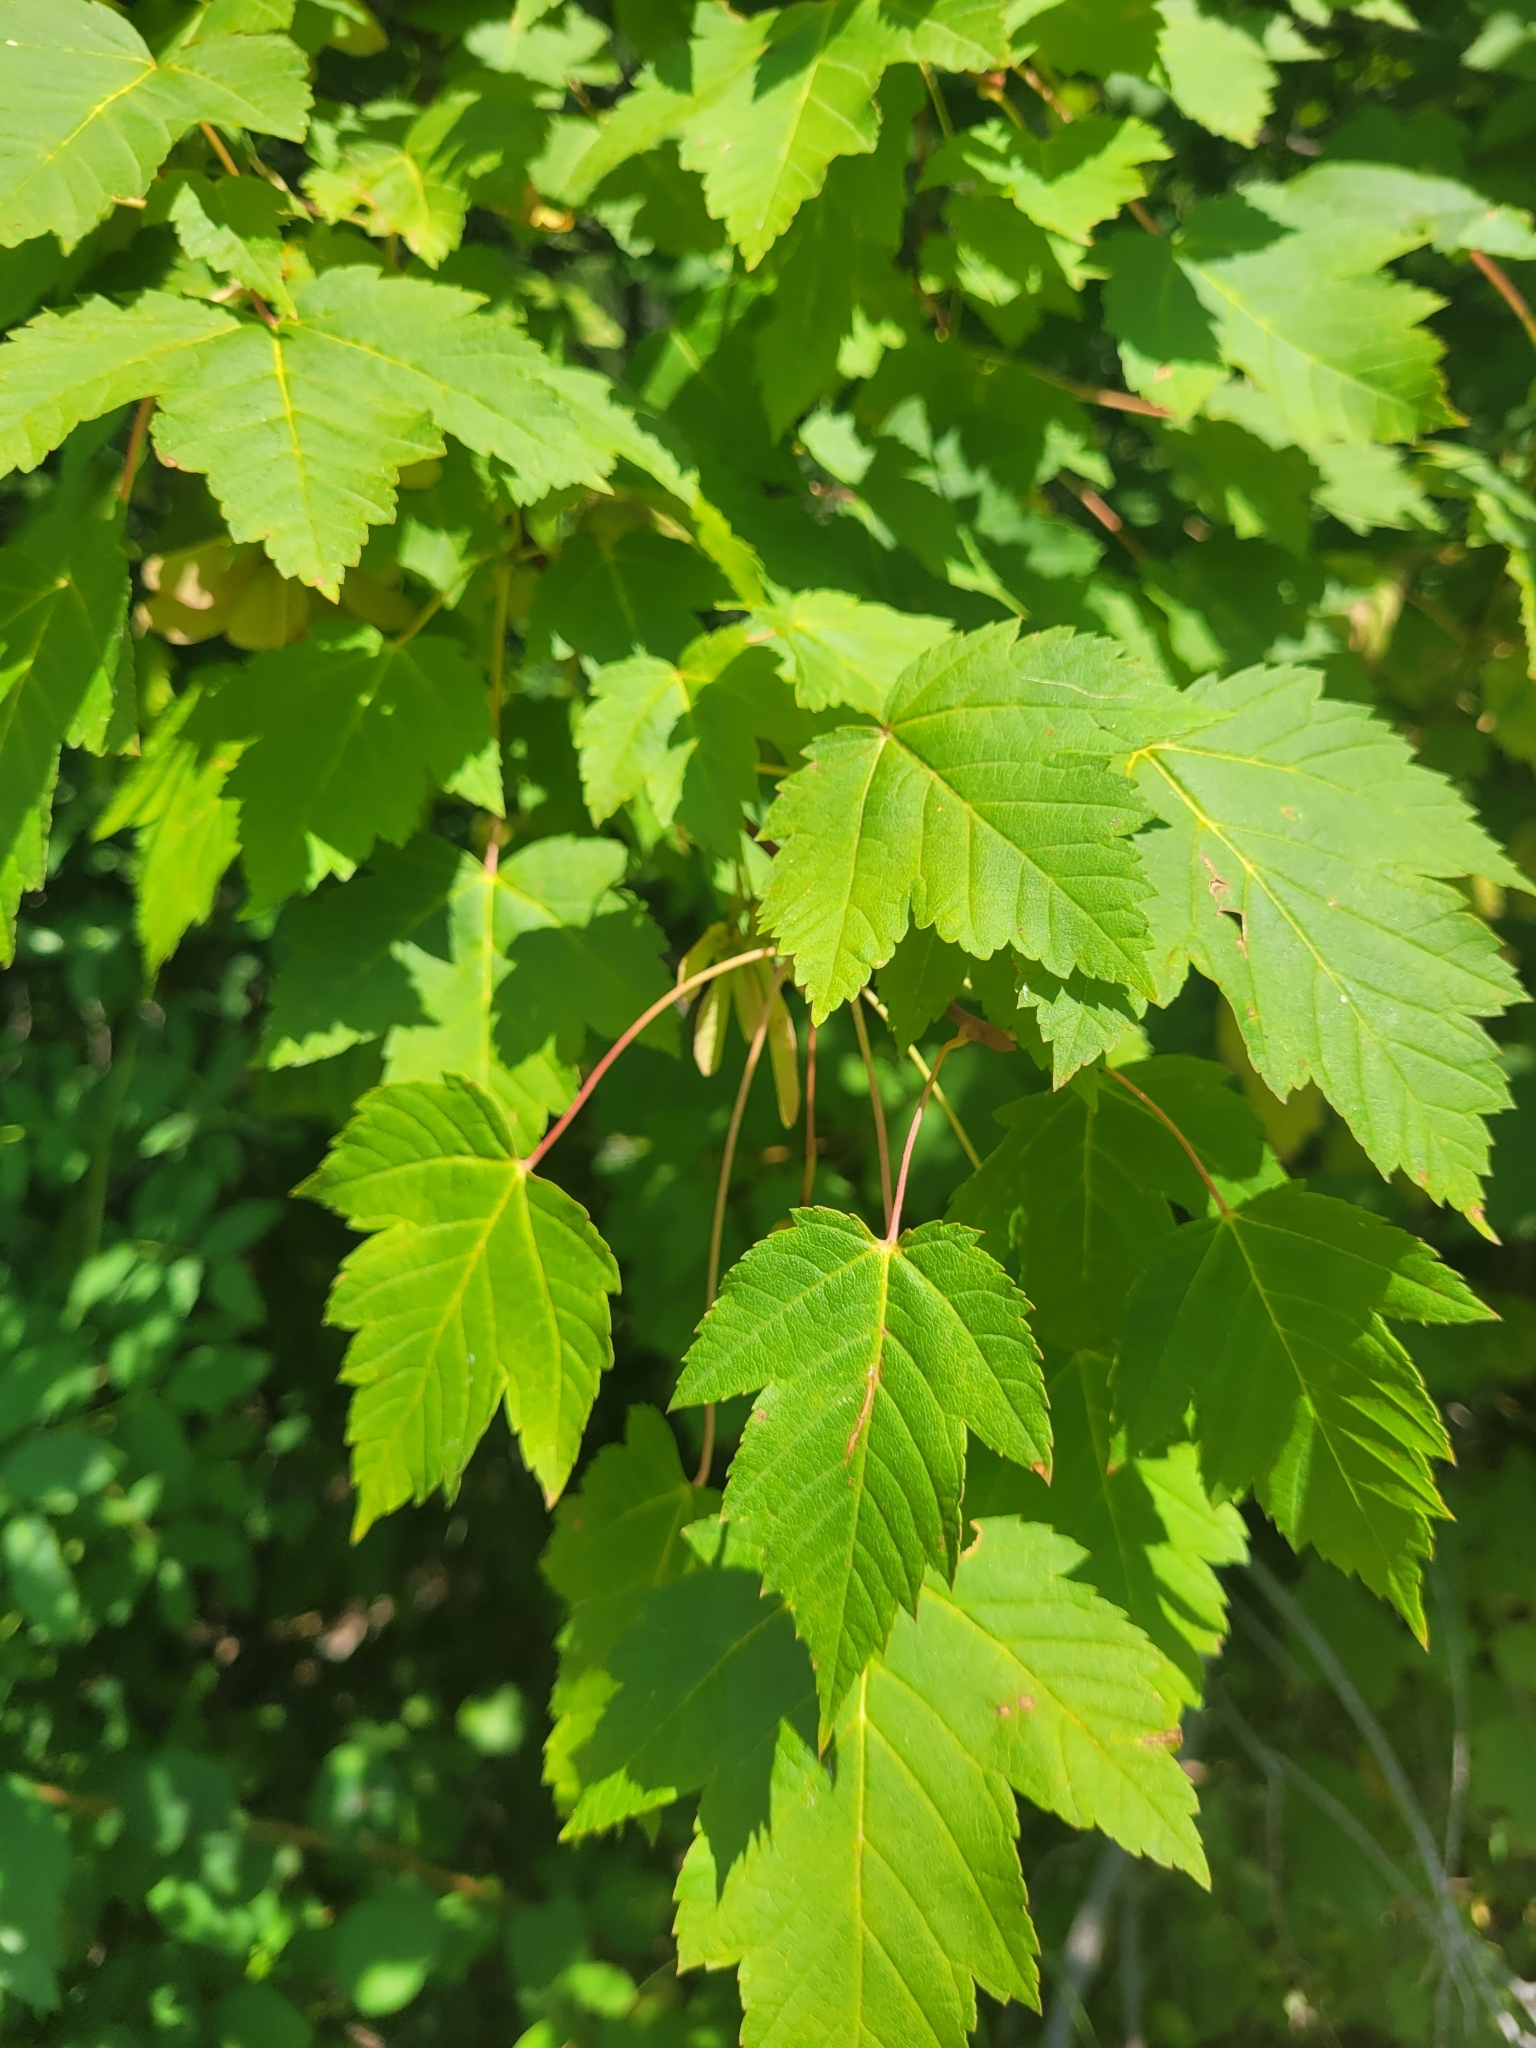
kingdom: Plantae
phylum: Tracheophyta
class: Magnoliopsida
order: Sapindales
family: Sapindaceae
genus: Acer
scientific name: Acer glabrum
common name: Rocky mountain maple
